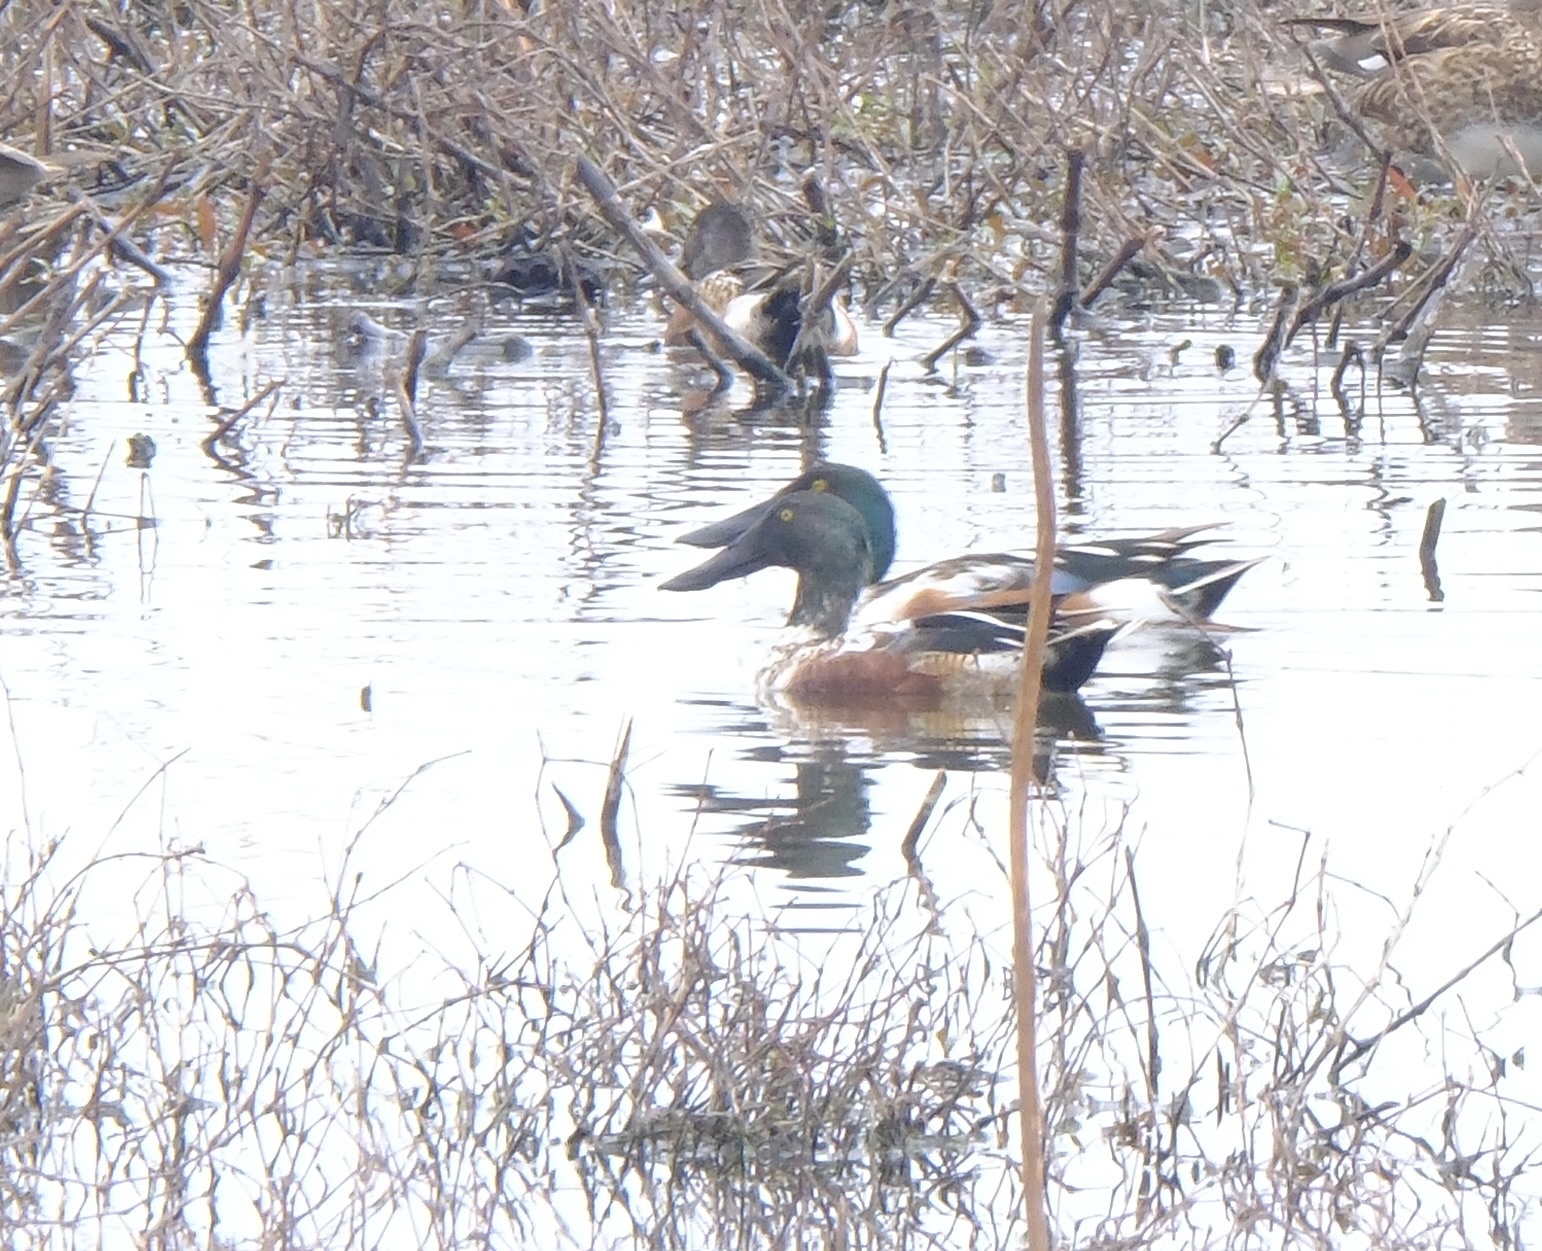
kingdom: Animalia
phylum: Chordata
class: Aves
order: Anseriformes
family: Anatidae
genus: Spatula
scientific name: Spatula clypeata
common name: Northern shoveler
